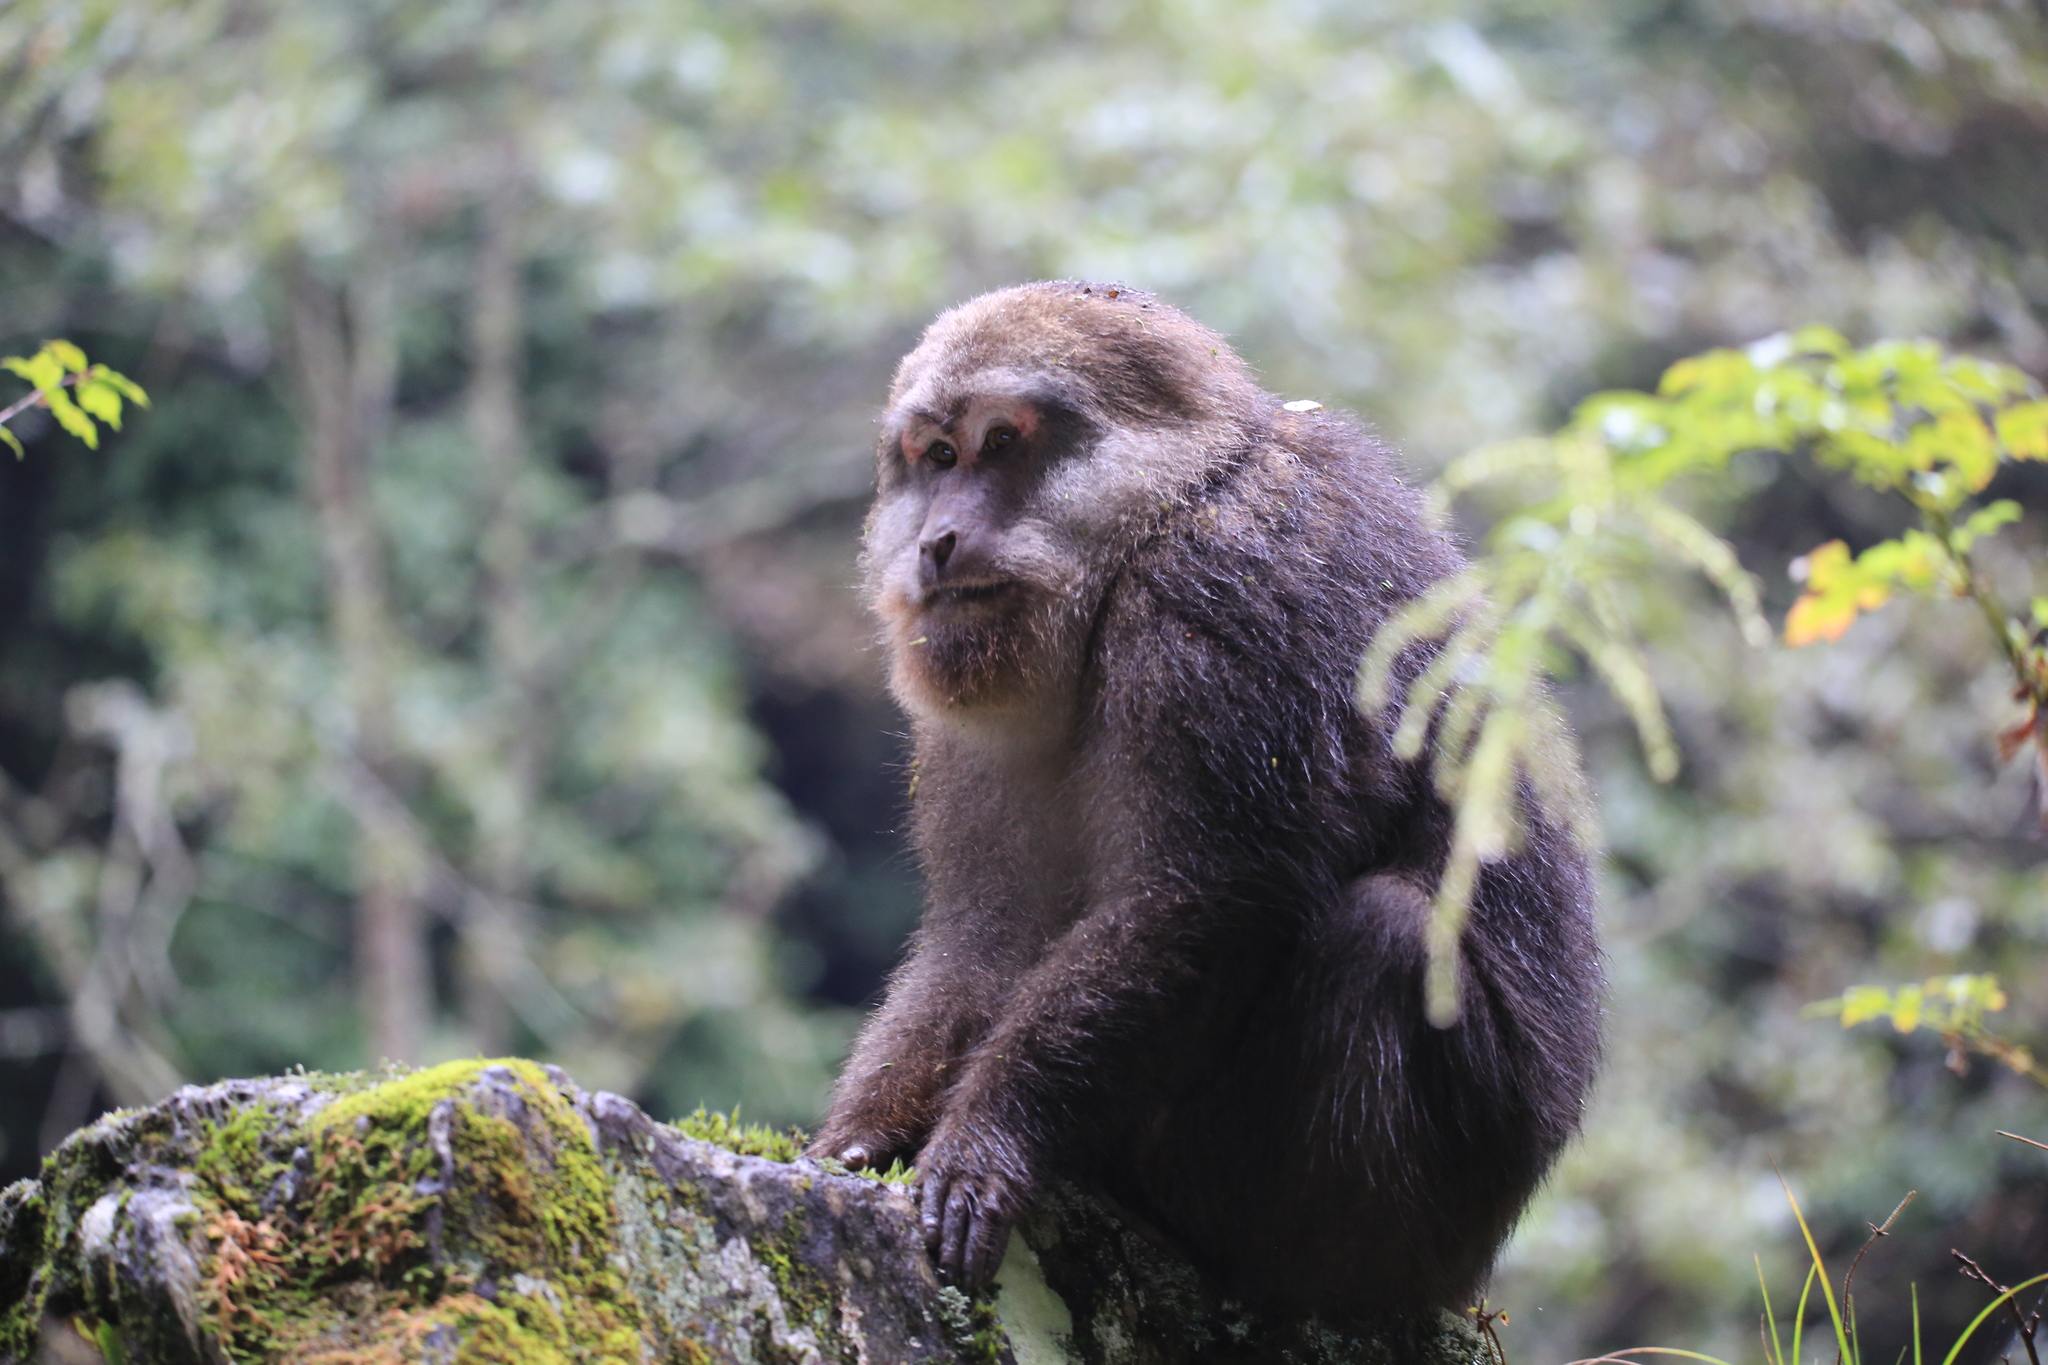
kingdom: Animalia
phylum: Chordata
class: Mammalia
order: Primates
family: Cercopithecidae
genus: Macaca
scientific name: Macaca thibetana
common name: Tibetan macaque
